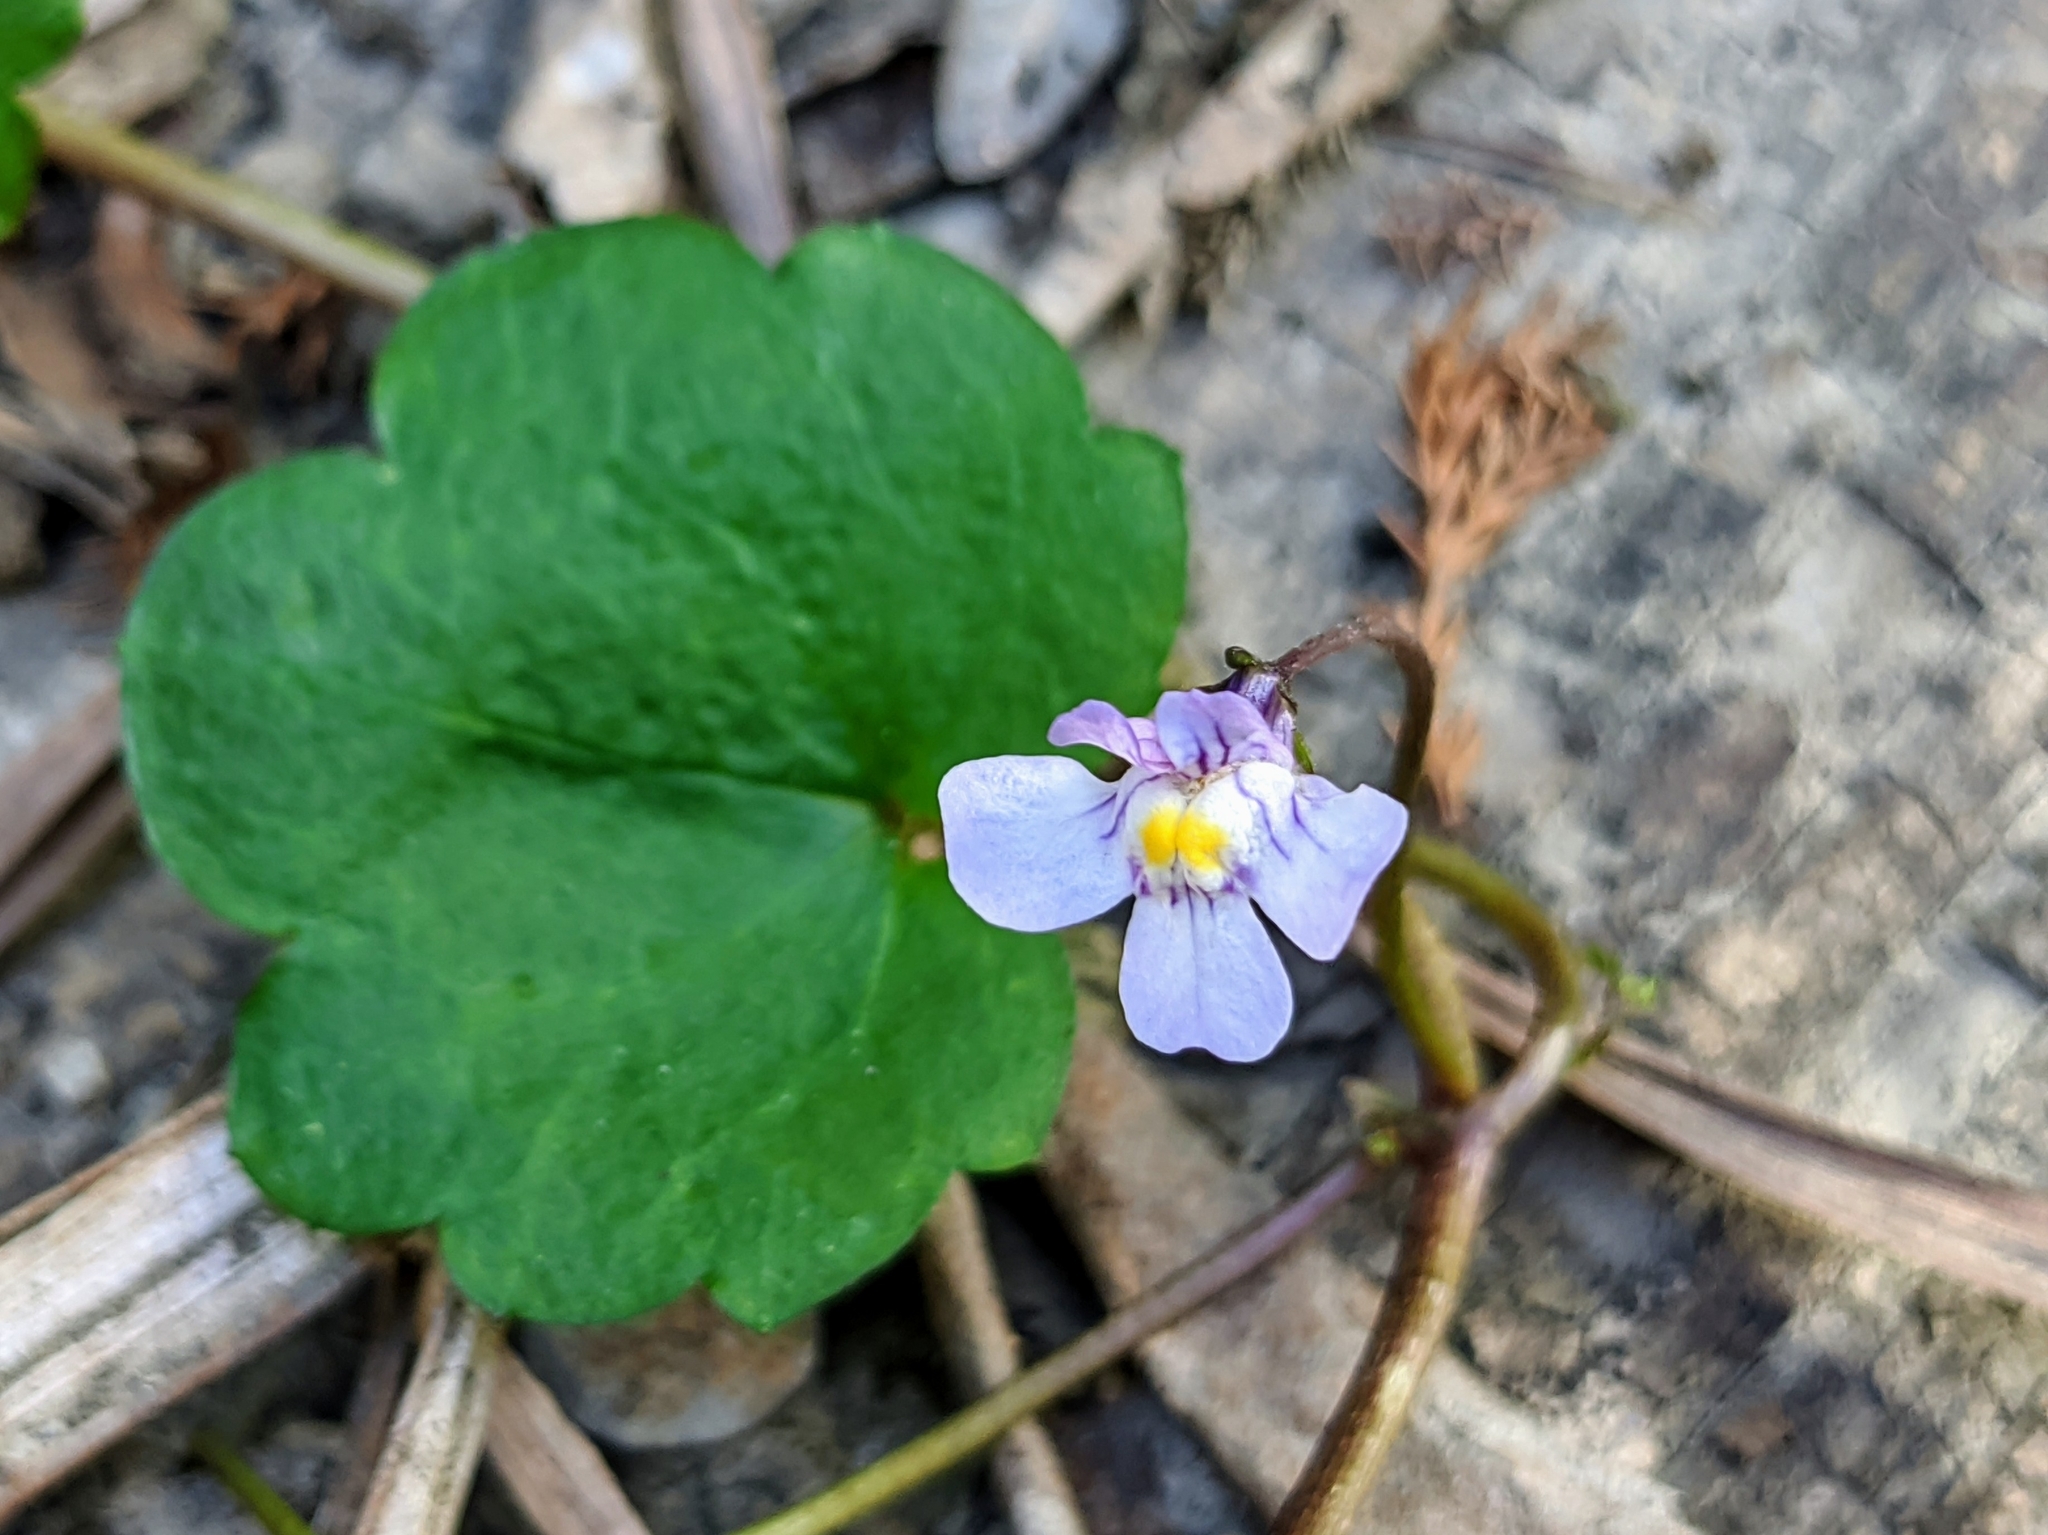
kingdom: Plantae
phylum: Tracheophyta
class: Magnoliopsida
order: Lamiales
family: Plantaginaceae
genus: Cymbalaria
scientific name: Cymbalaria muralis
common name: Ivy-leaved toadflax
